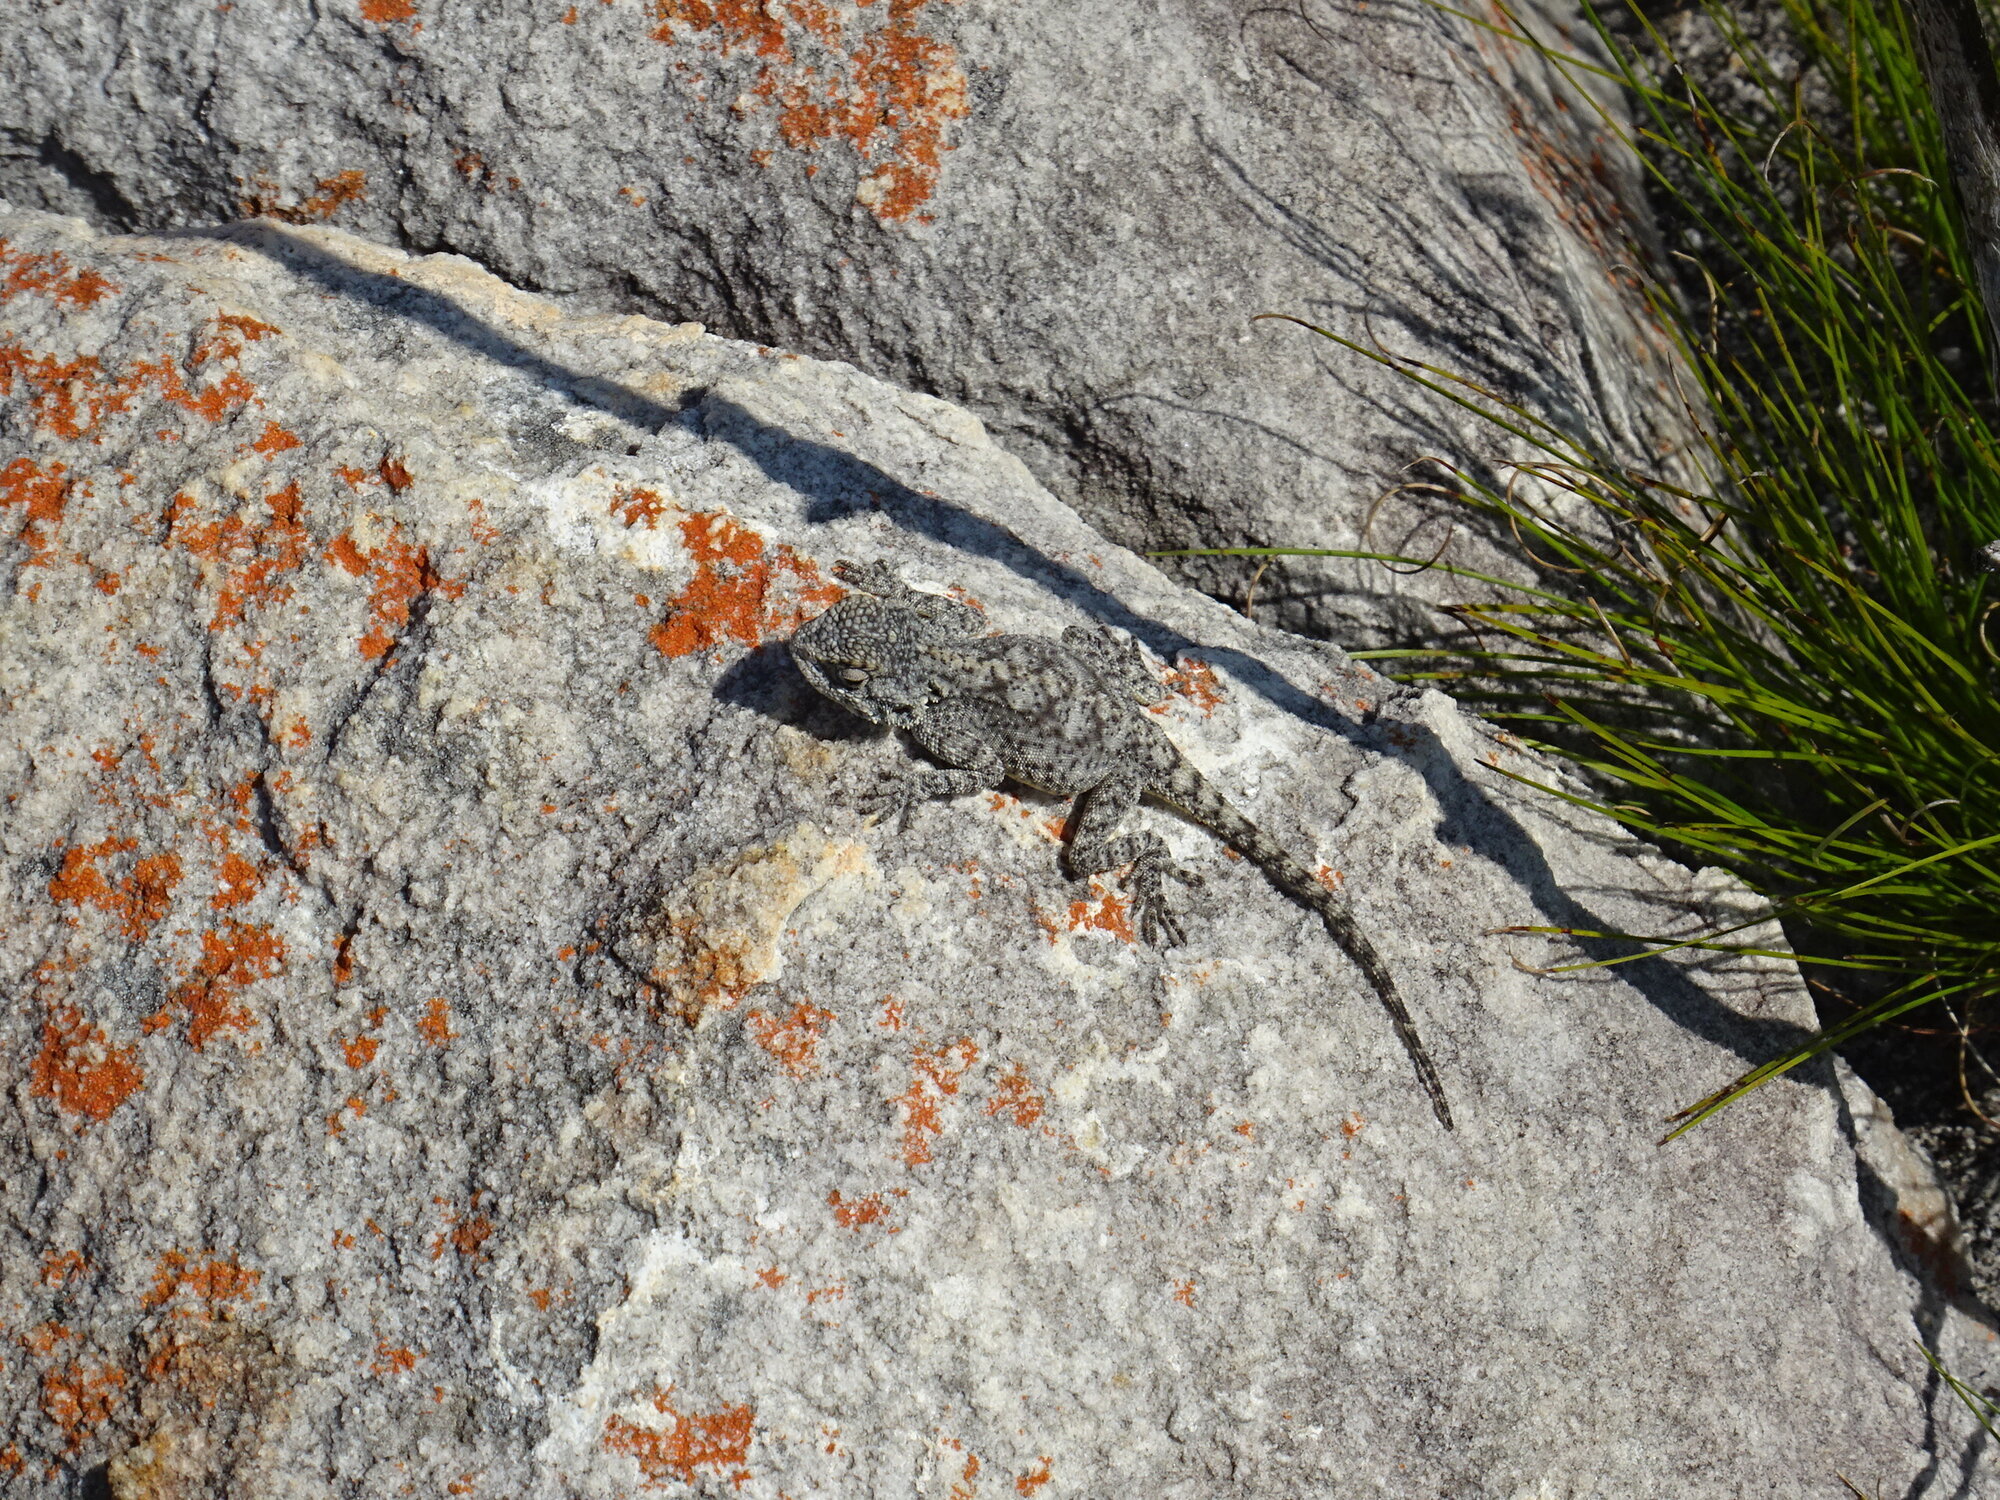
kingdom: Animalia
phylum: Chordata
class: Squamata
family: Agamidae
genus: Agama
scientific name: Agama atra
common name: Southern african rock agama
